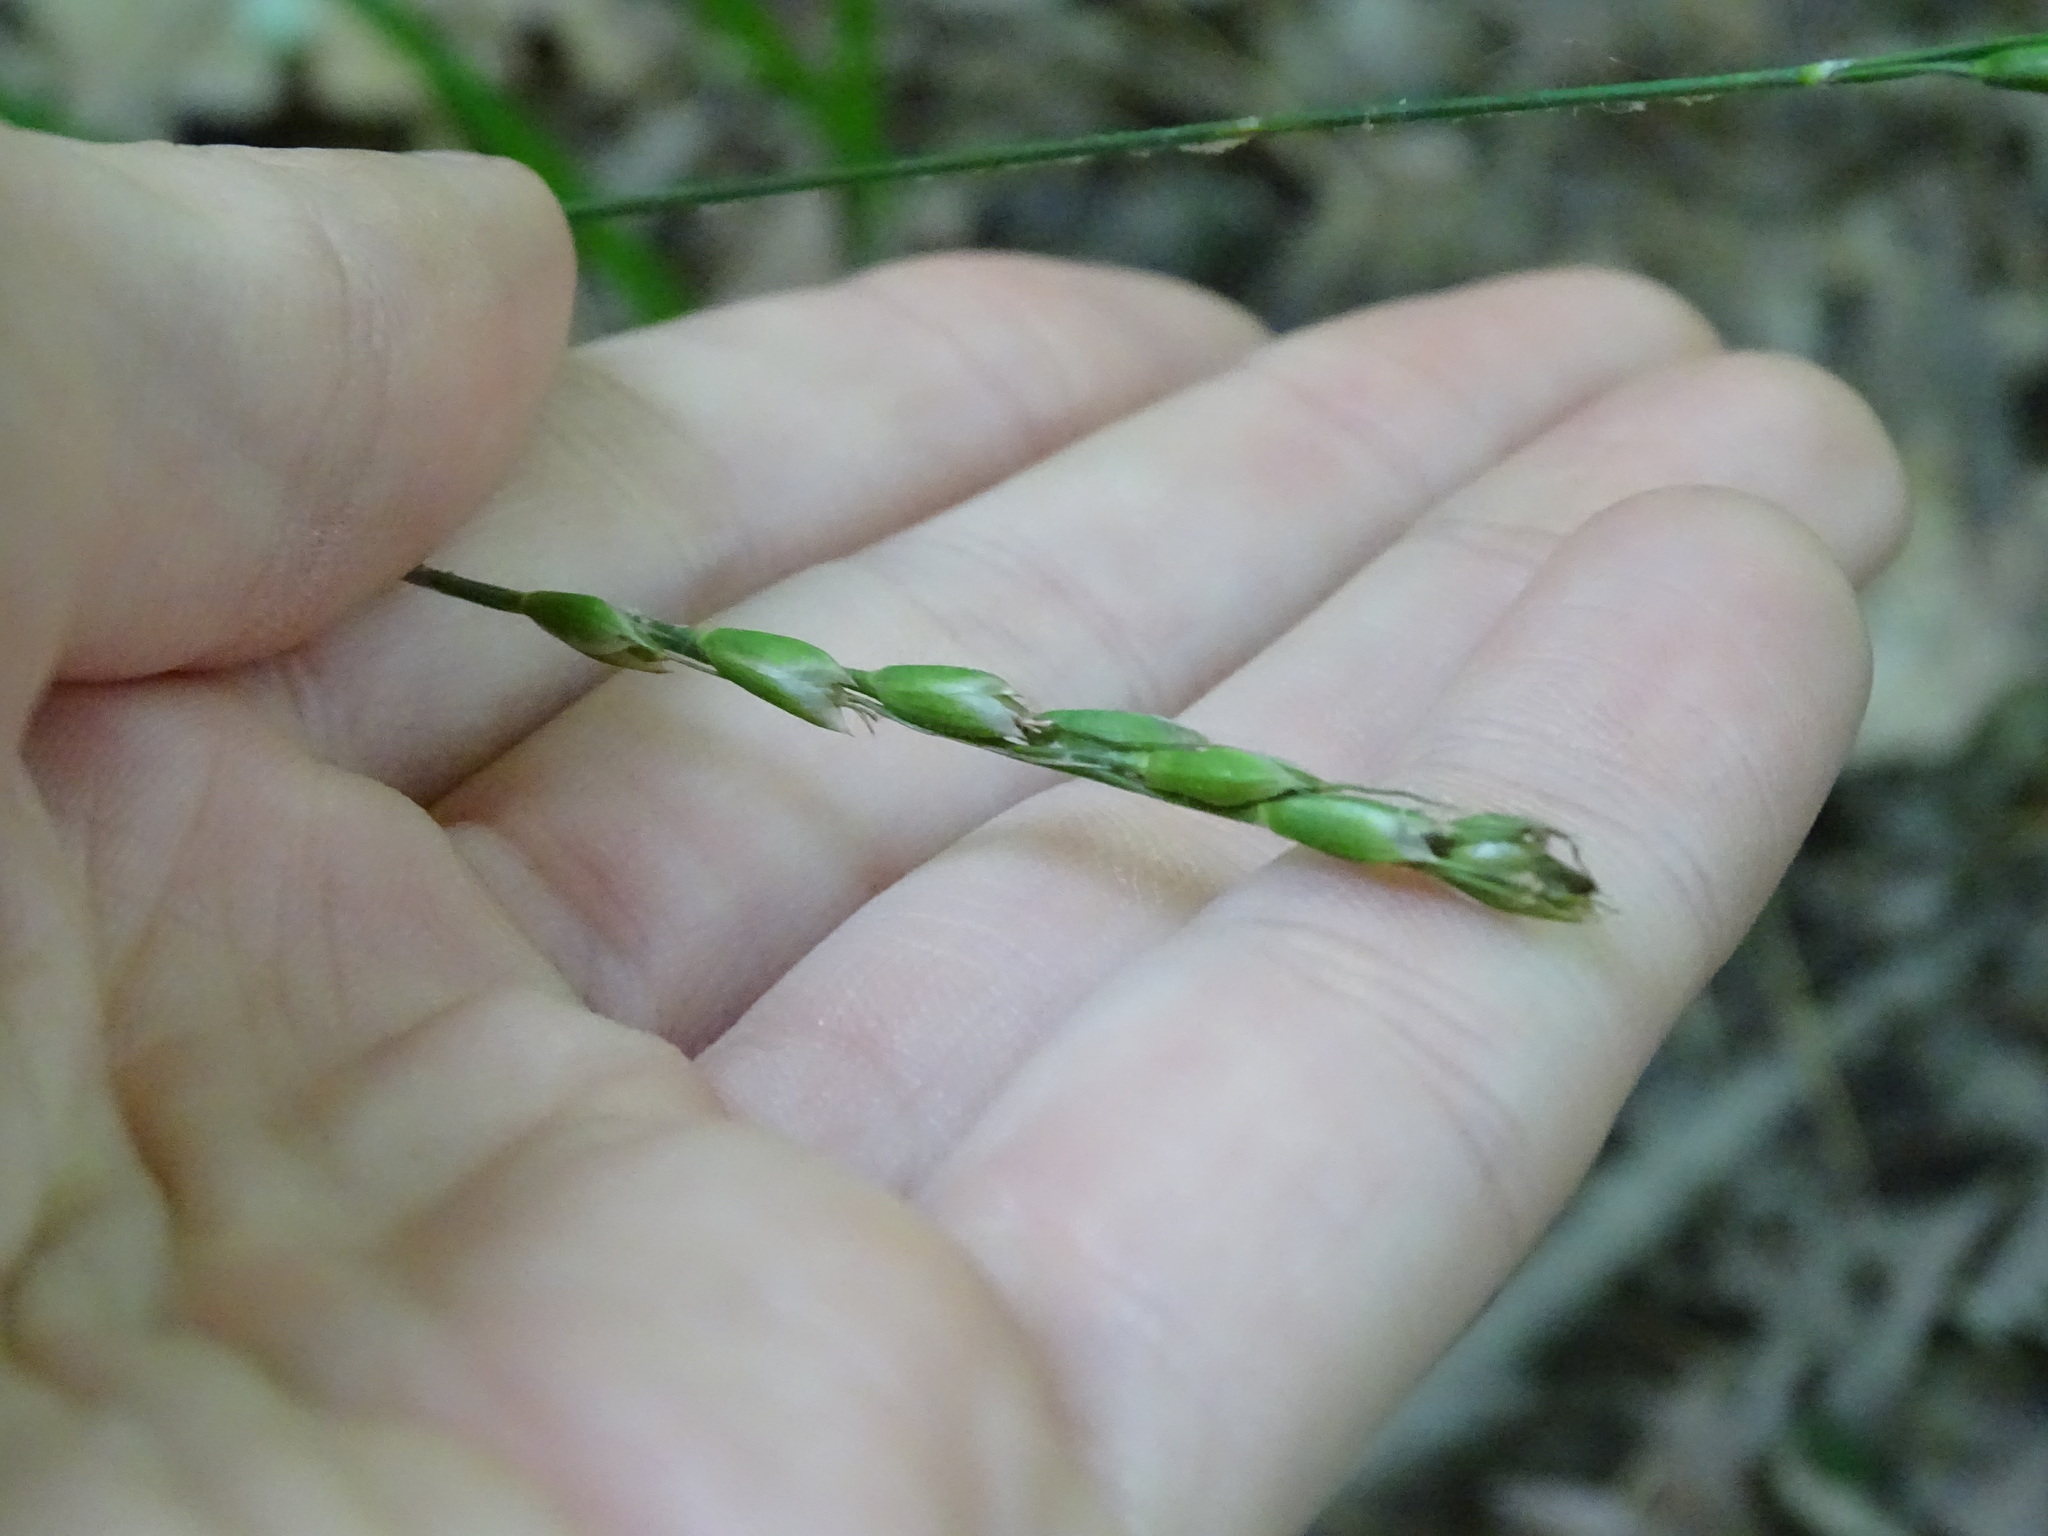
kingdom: Plantae
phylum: Tracheophyta
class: Liliopsida
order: Poales
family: Poaceae
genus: Oryzopsis
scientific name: Oryzopsis asperifolia
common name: Rough-leaved mountain rice
